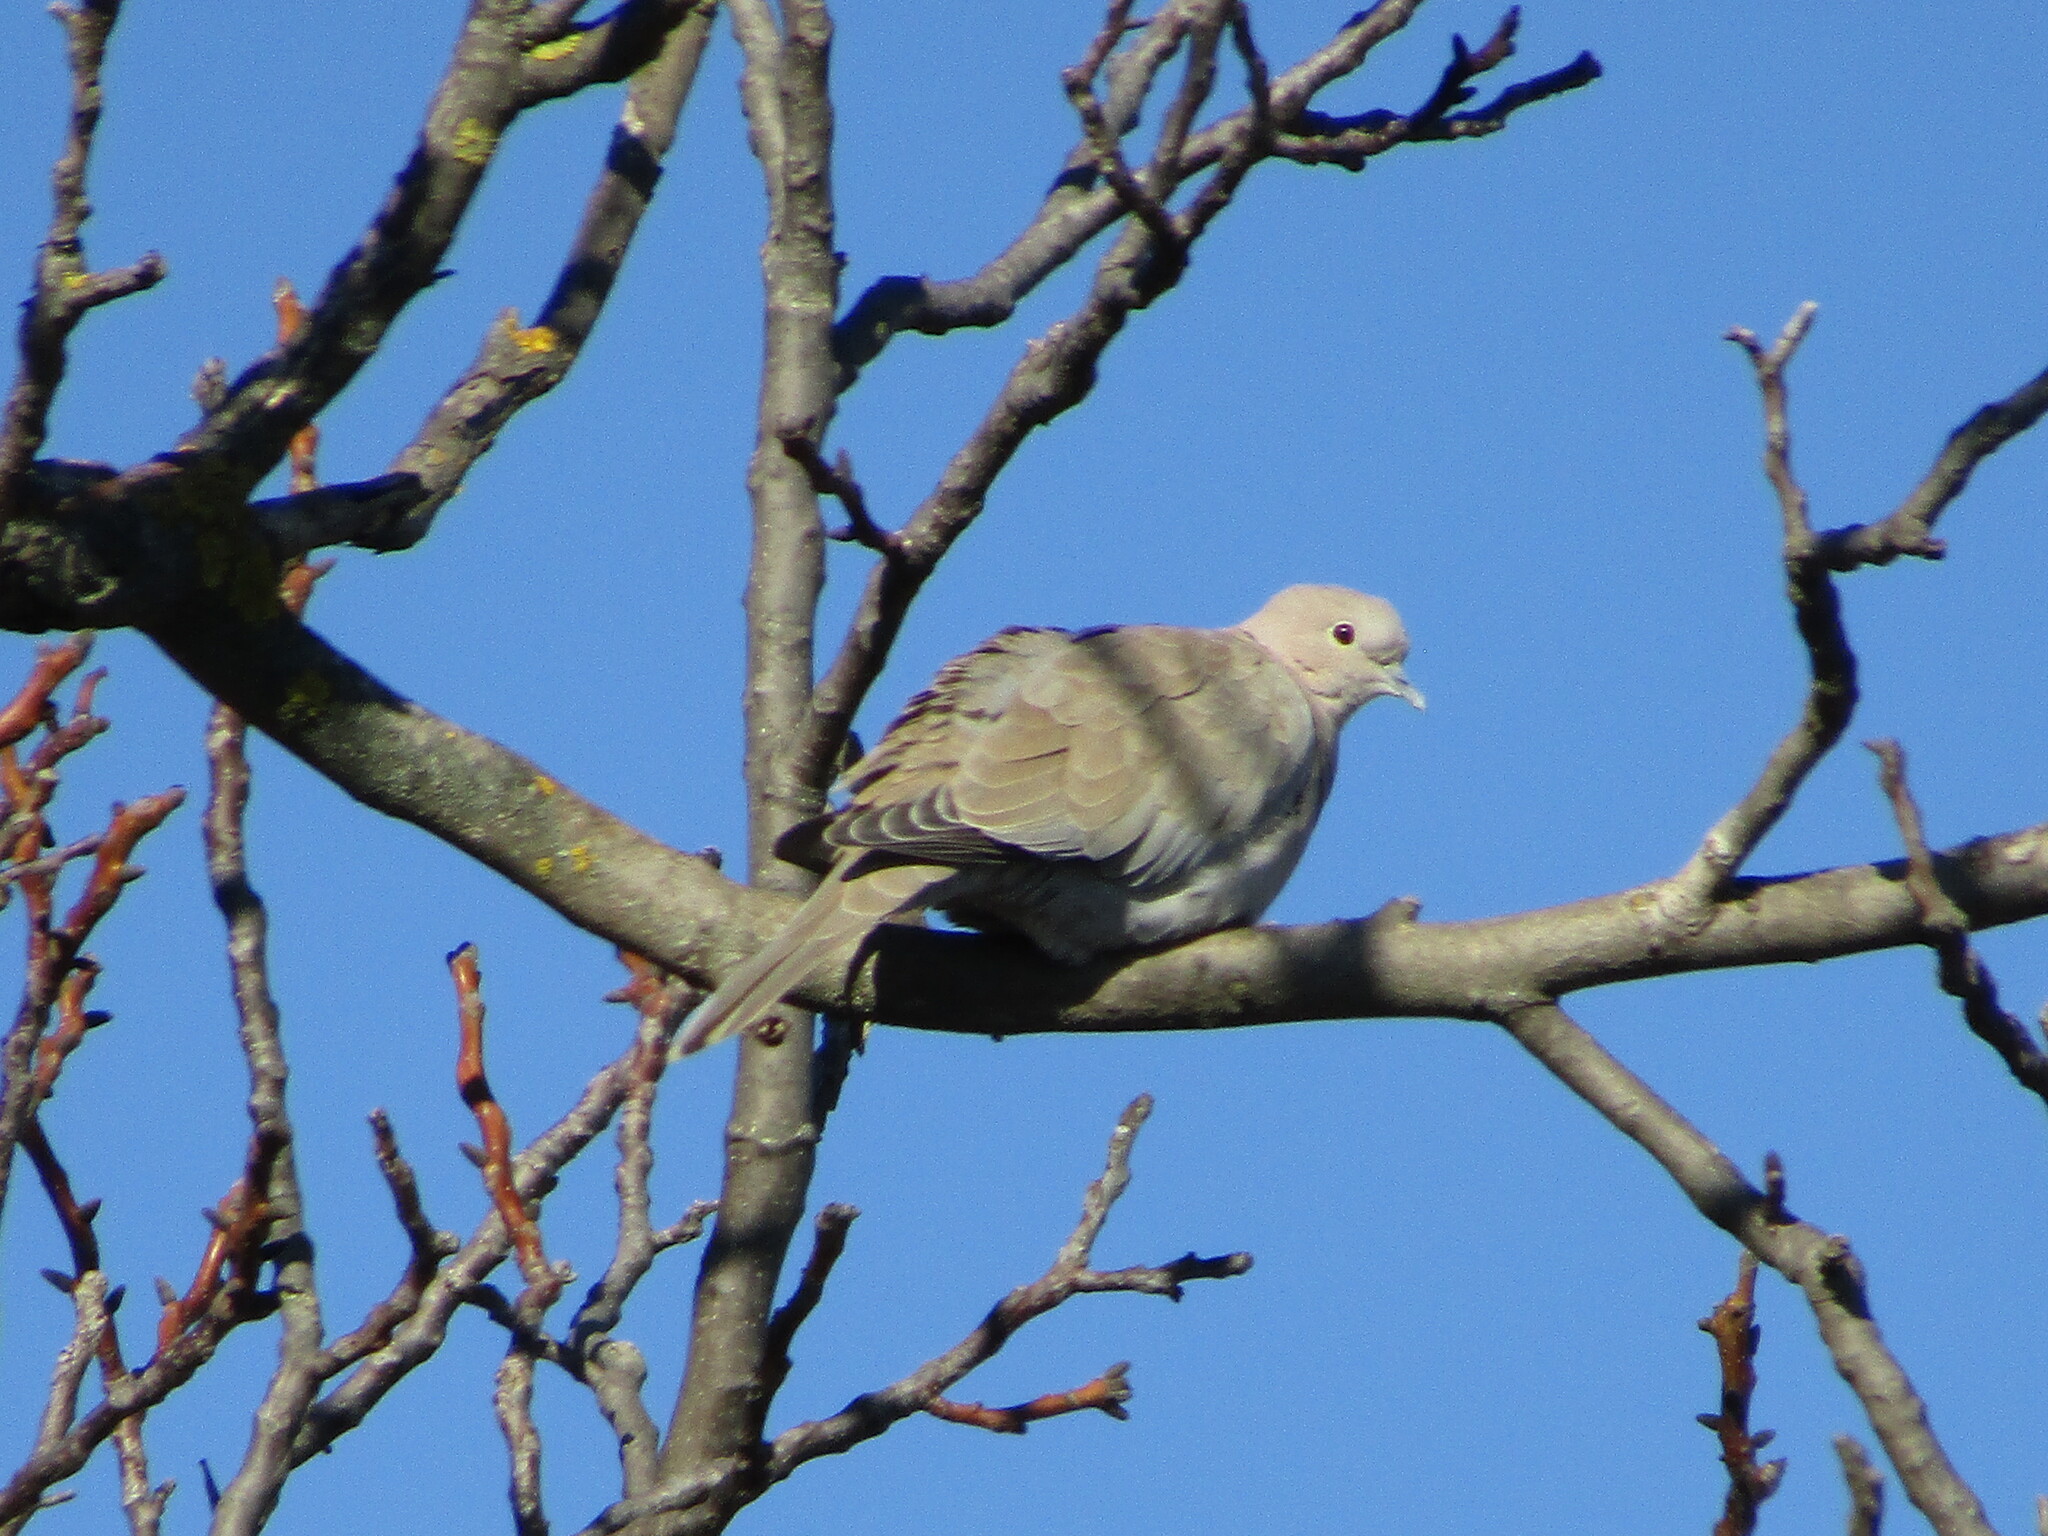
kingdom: Animalia
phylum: Chordata
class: Aves
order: Columbiformes
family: Columbidae
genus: Streptopelia
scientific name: Streptopelia decaocto
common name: Eurasian collared dove
